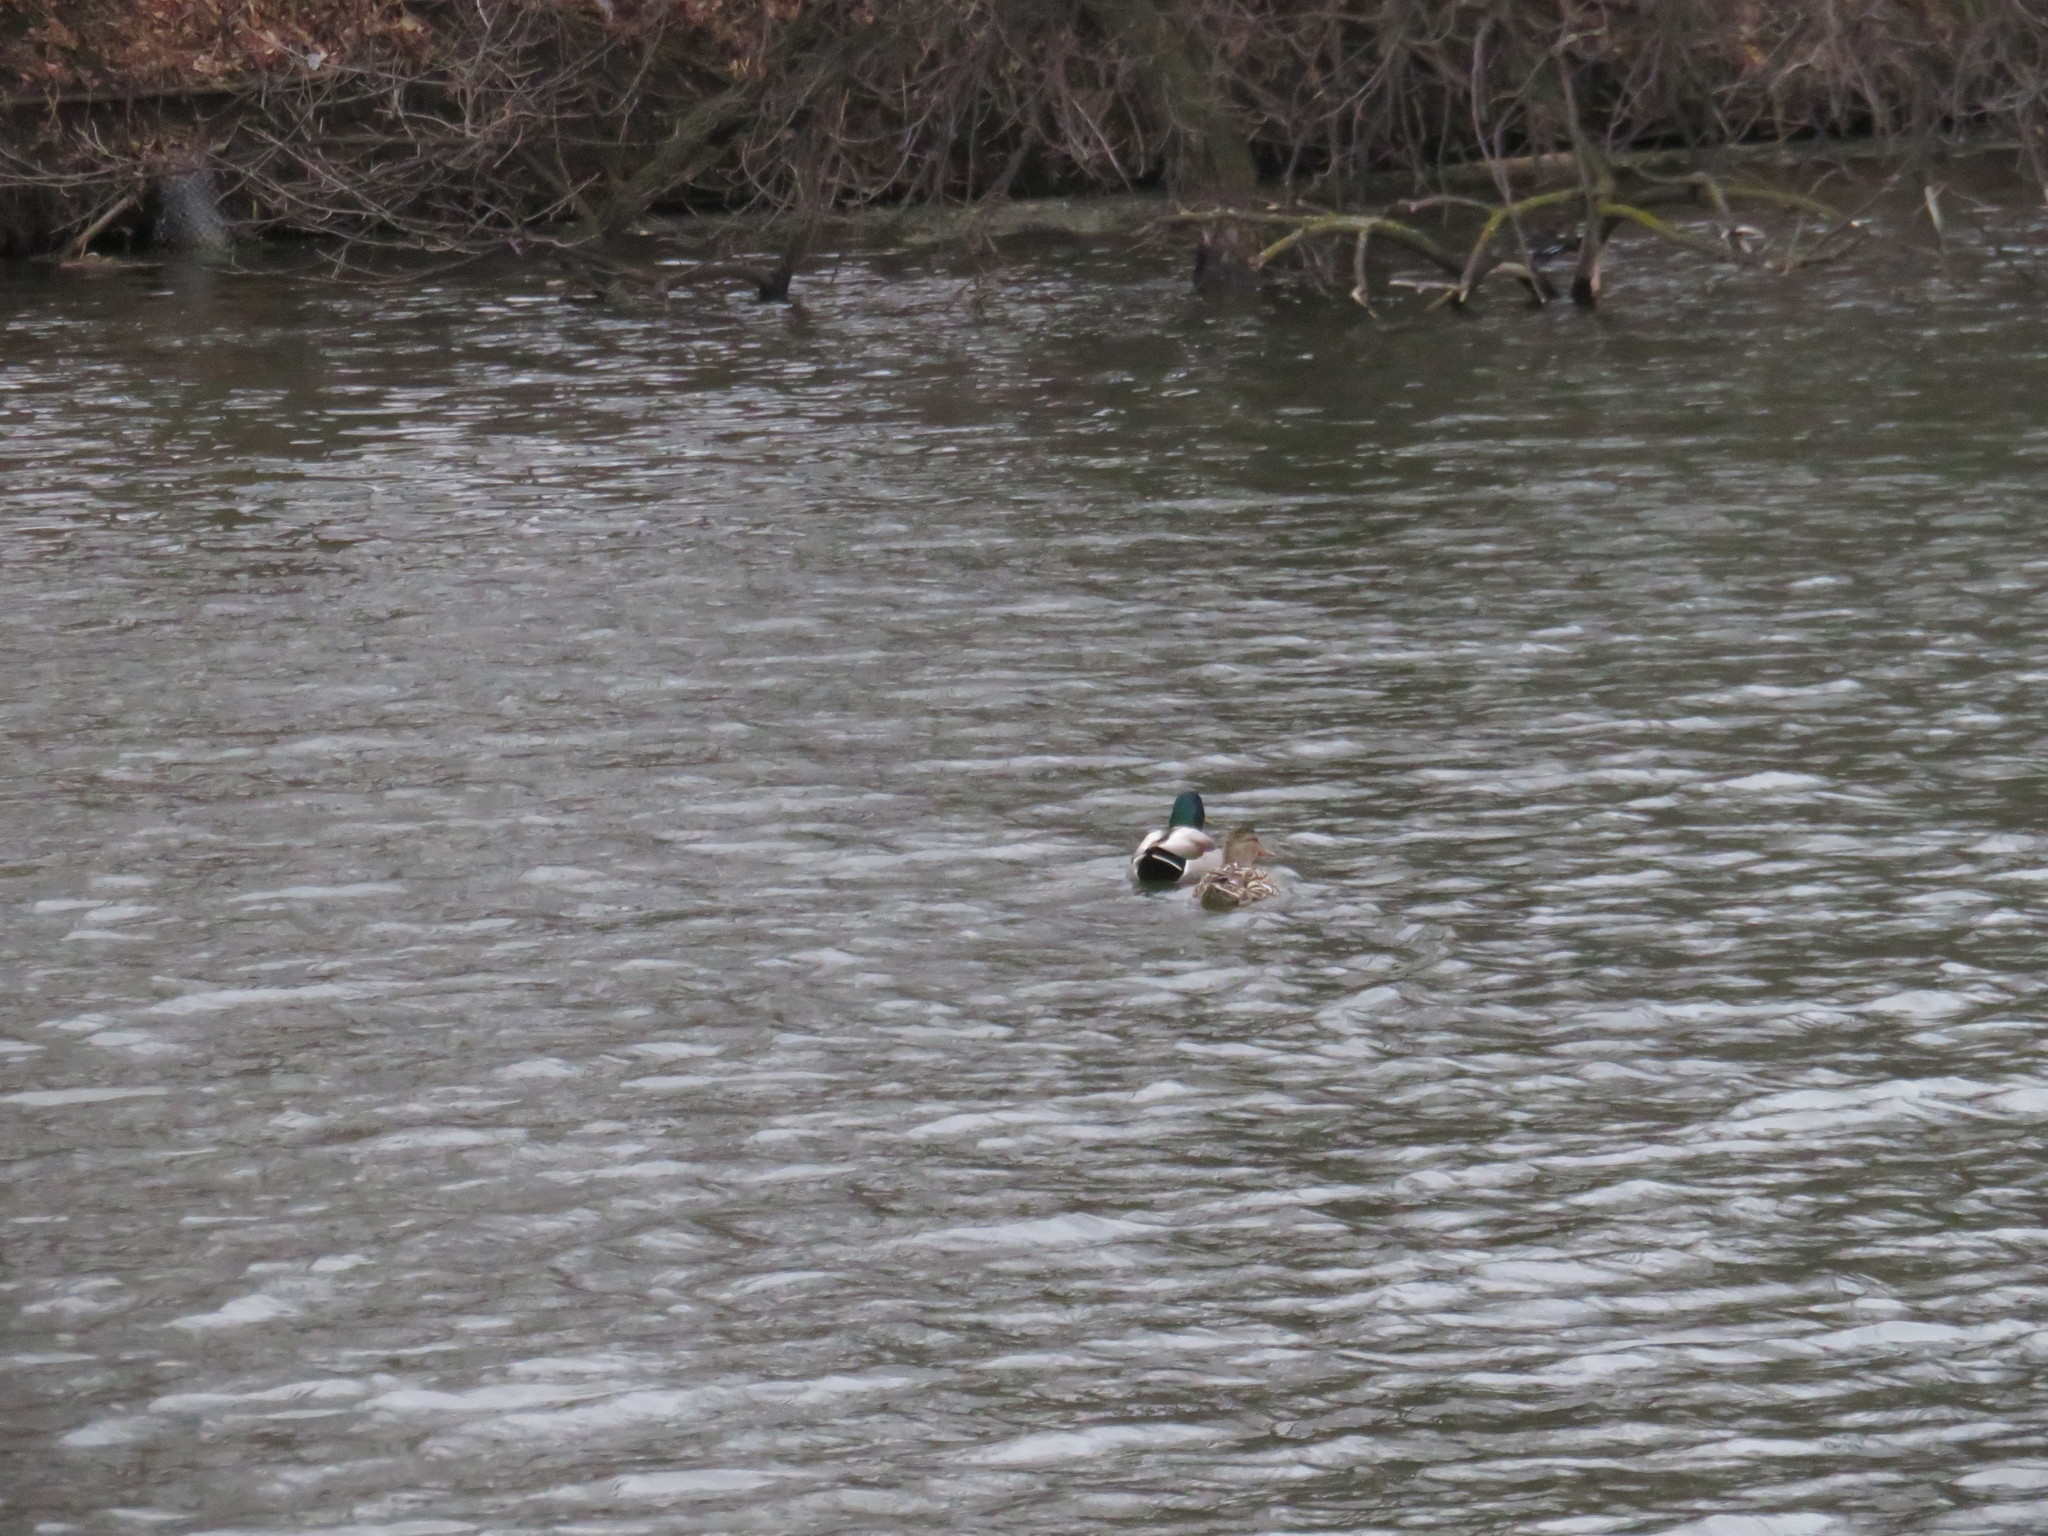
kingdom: Animalia
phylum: Chordata
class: Aves
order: Anseriformes
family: Anatidae
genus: Anas
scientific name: Anas platyrhynchos
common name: Mallard
